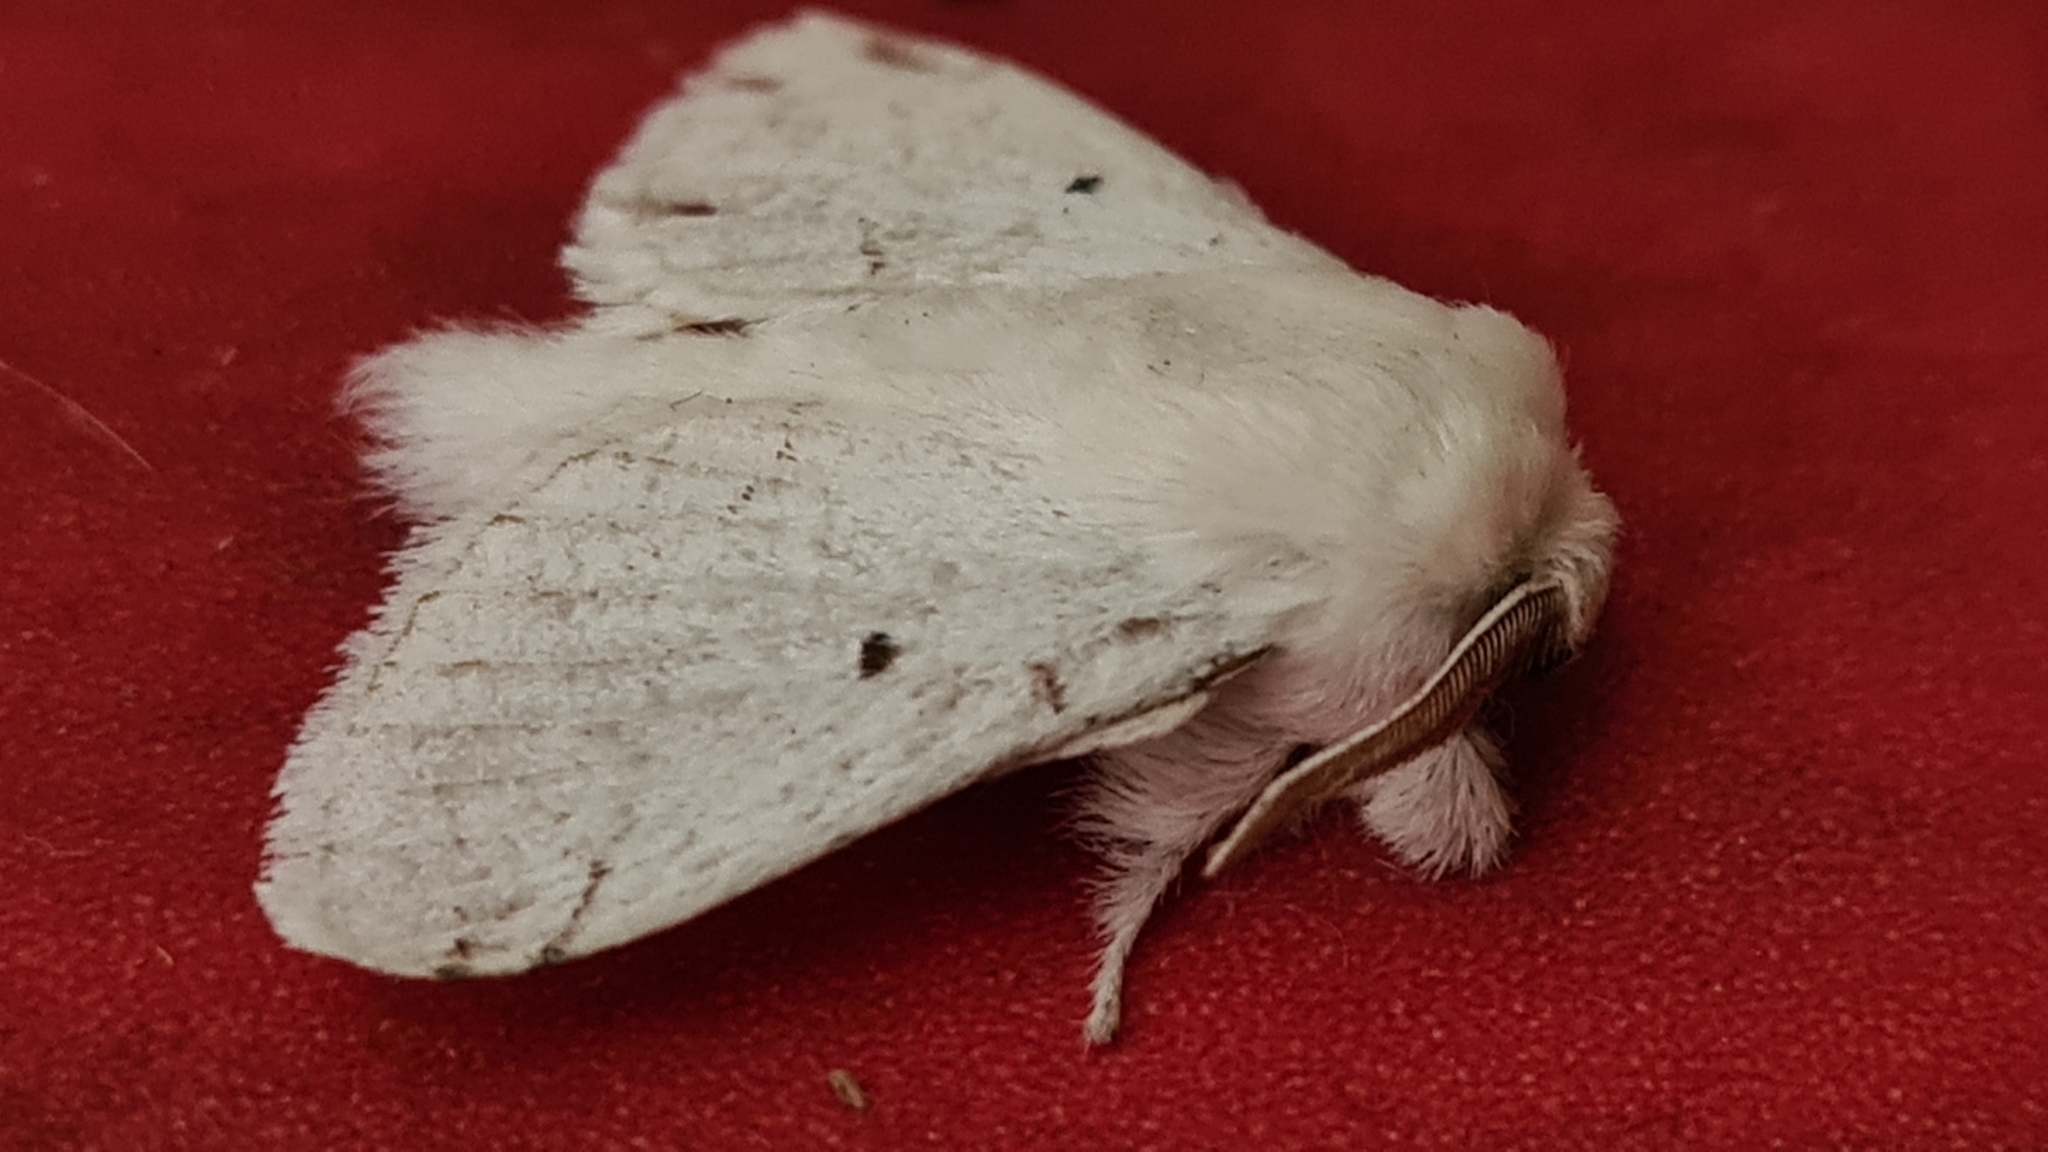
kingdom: Animalia
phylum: Arthropoda
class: Insecta
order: Lepidoptera
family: Lasiocampidae
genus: Macromphalia
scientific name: Macromphalia purissima
